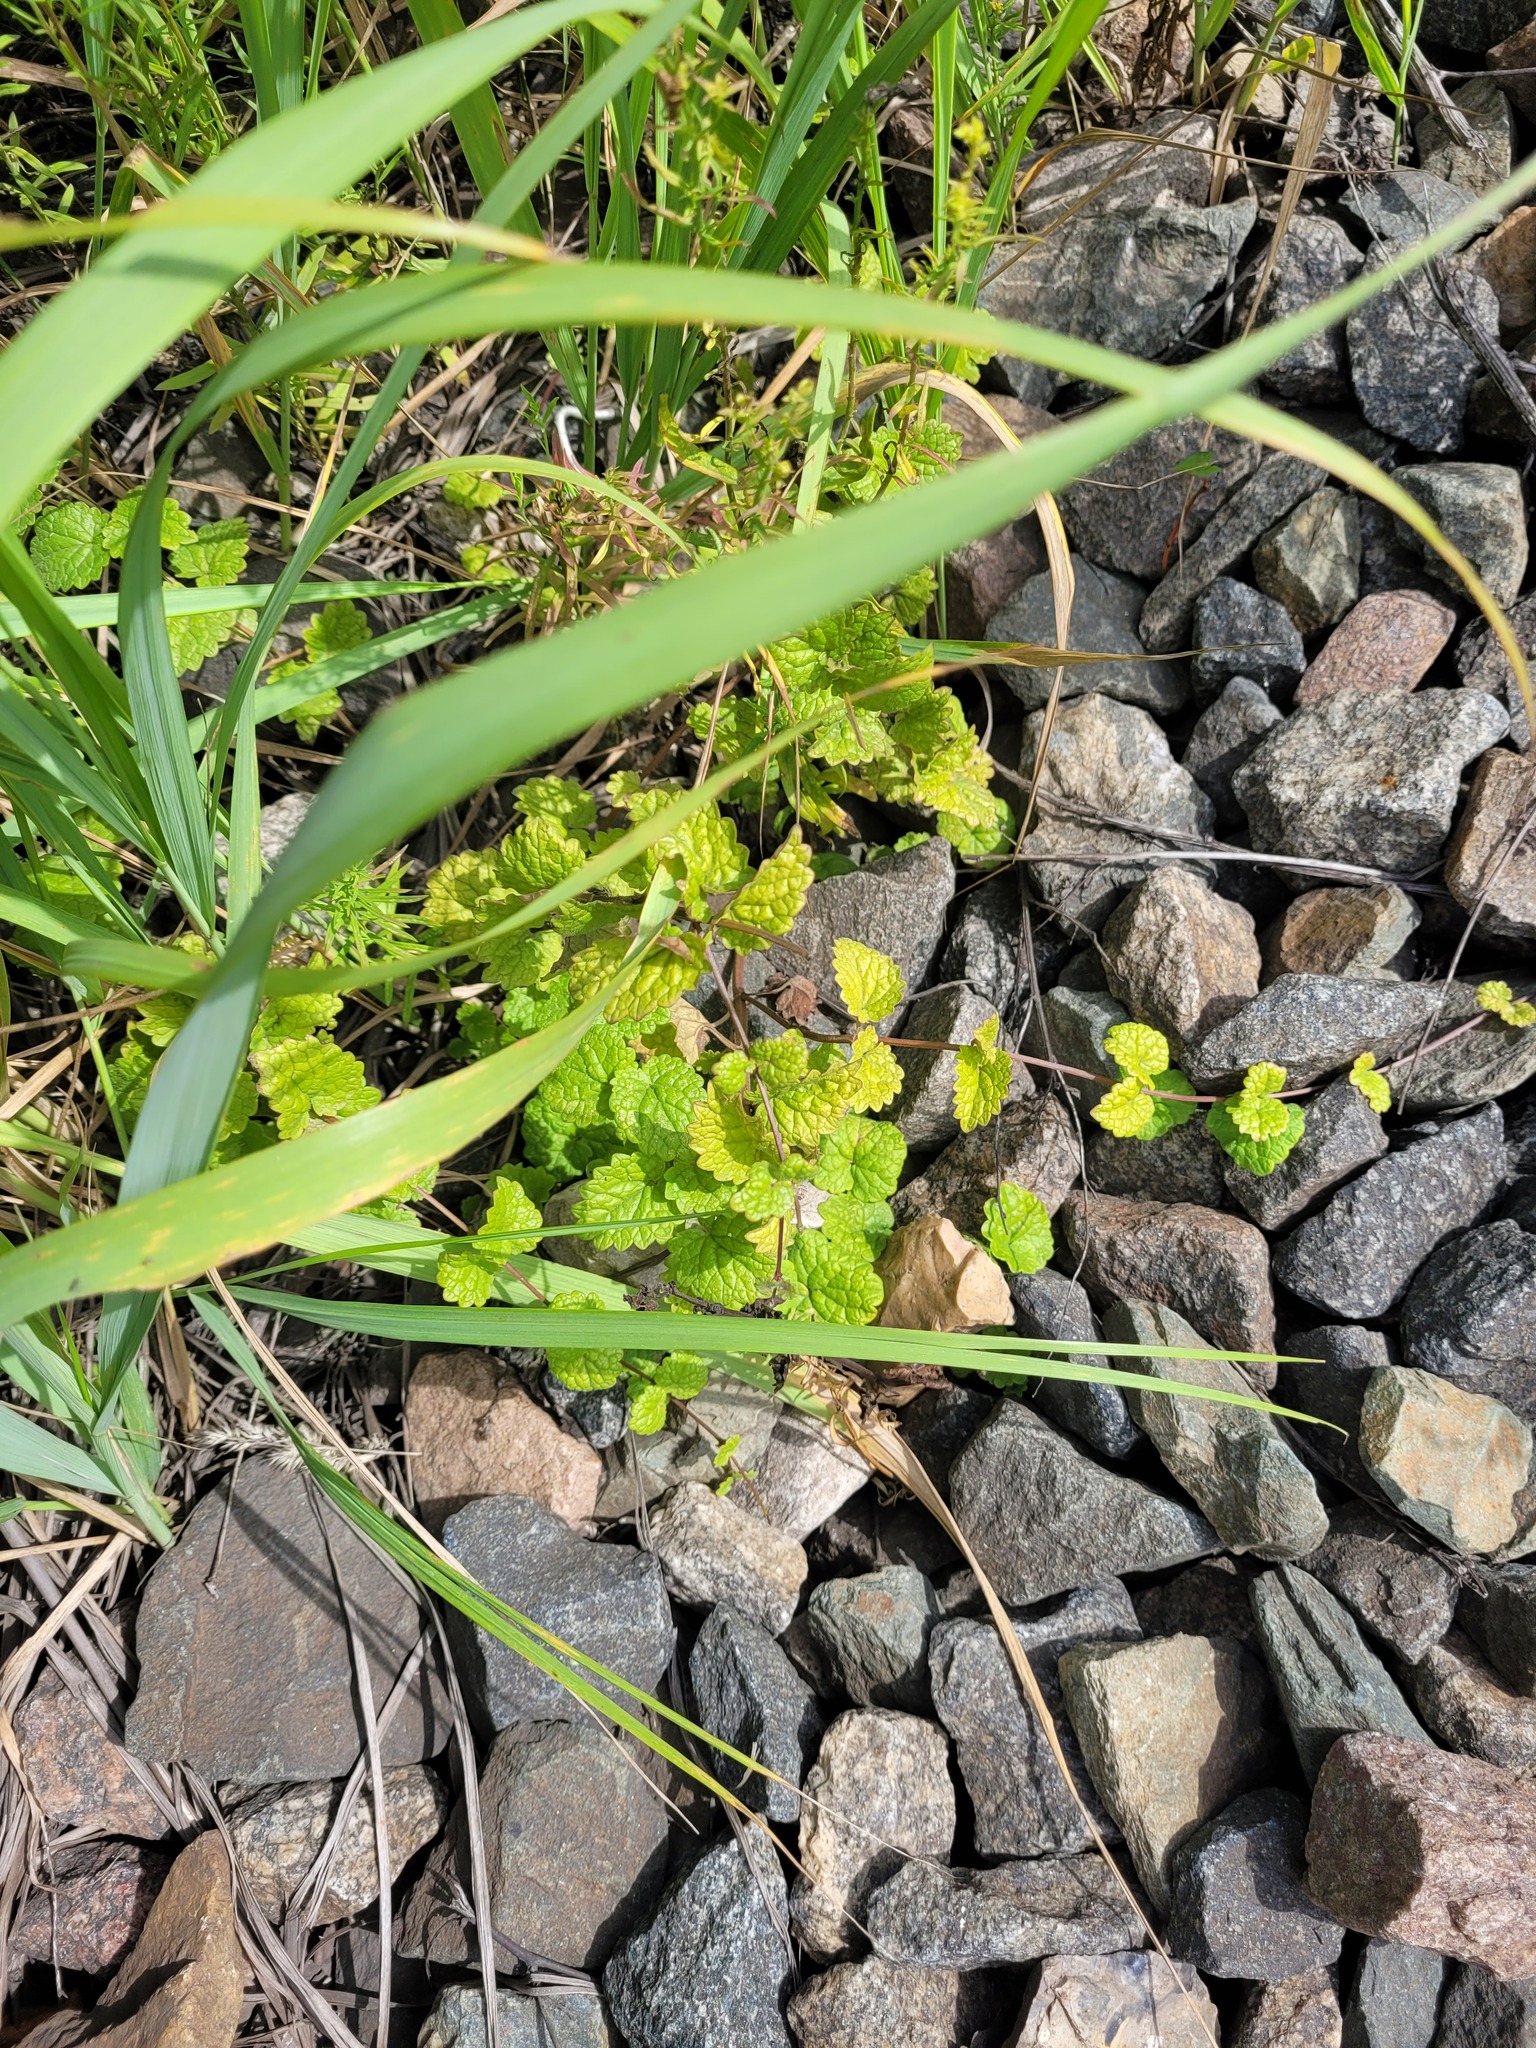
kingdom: Plantae
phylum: Tracheophyta
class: Magnoliopsida
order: Lamiales
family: Lamiaceae
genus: Glechoma
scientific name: Glechoma hederacea
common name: Ground ivy
